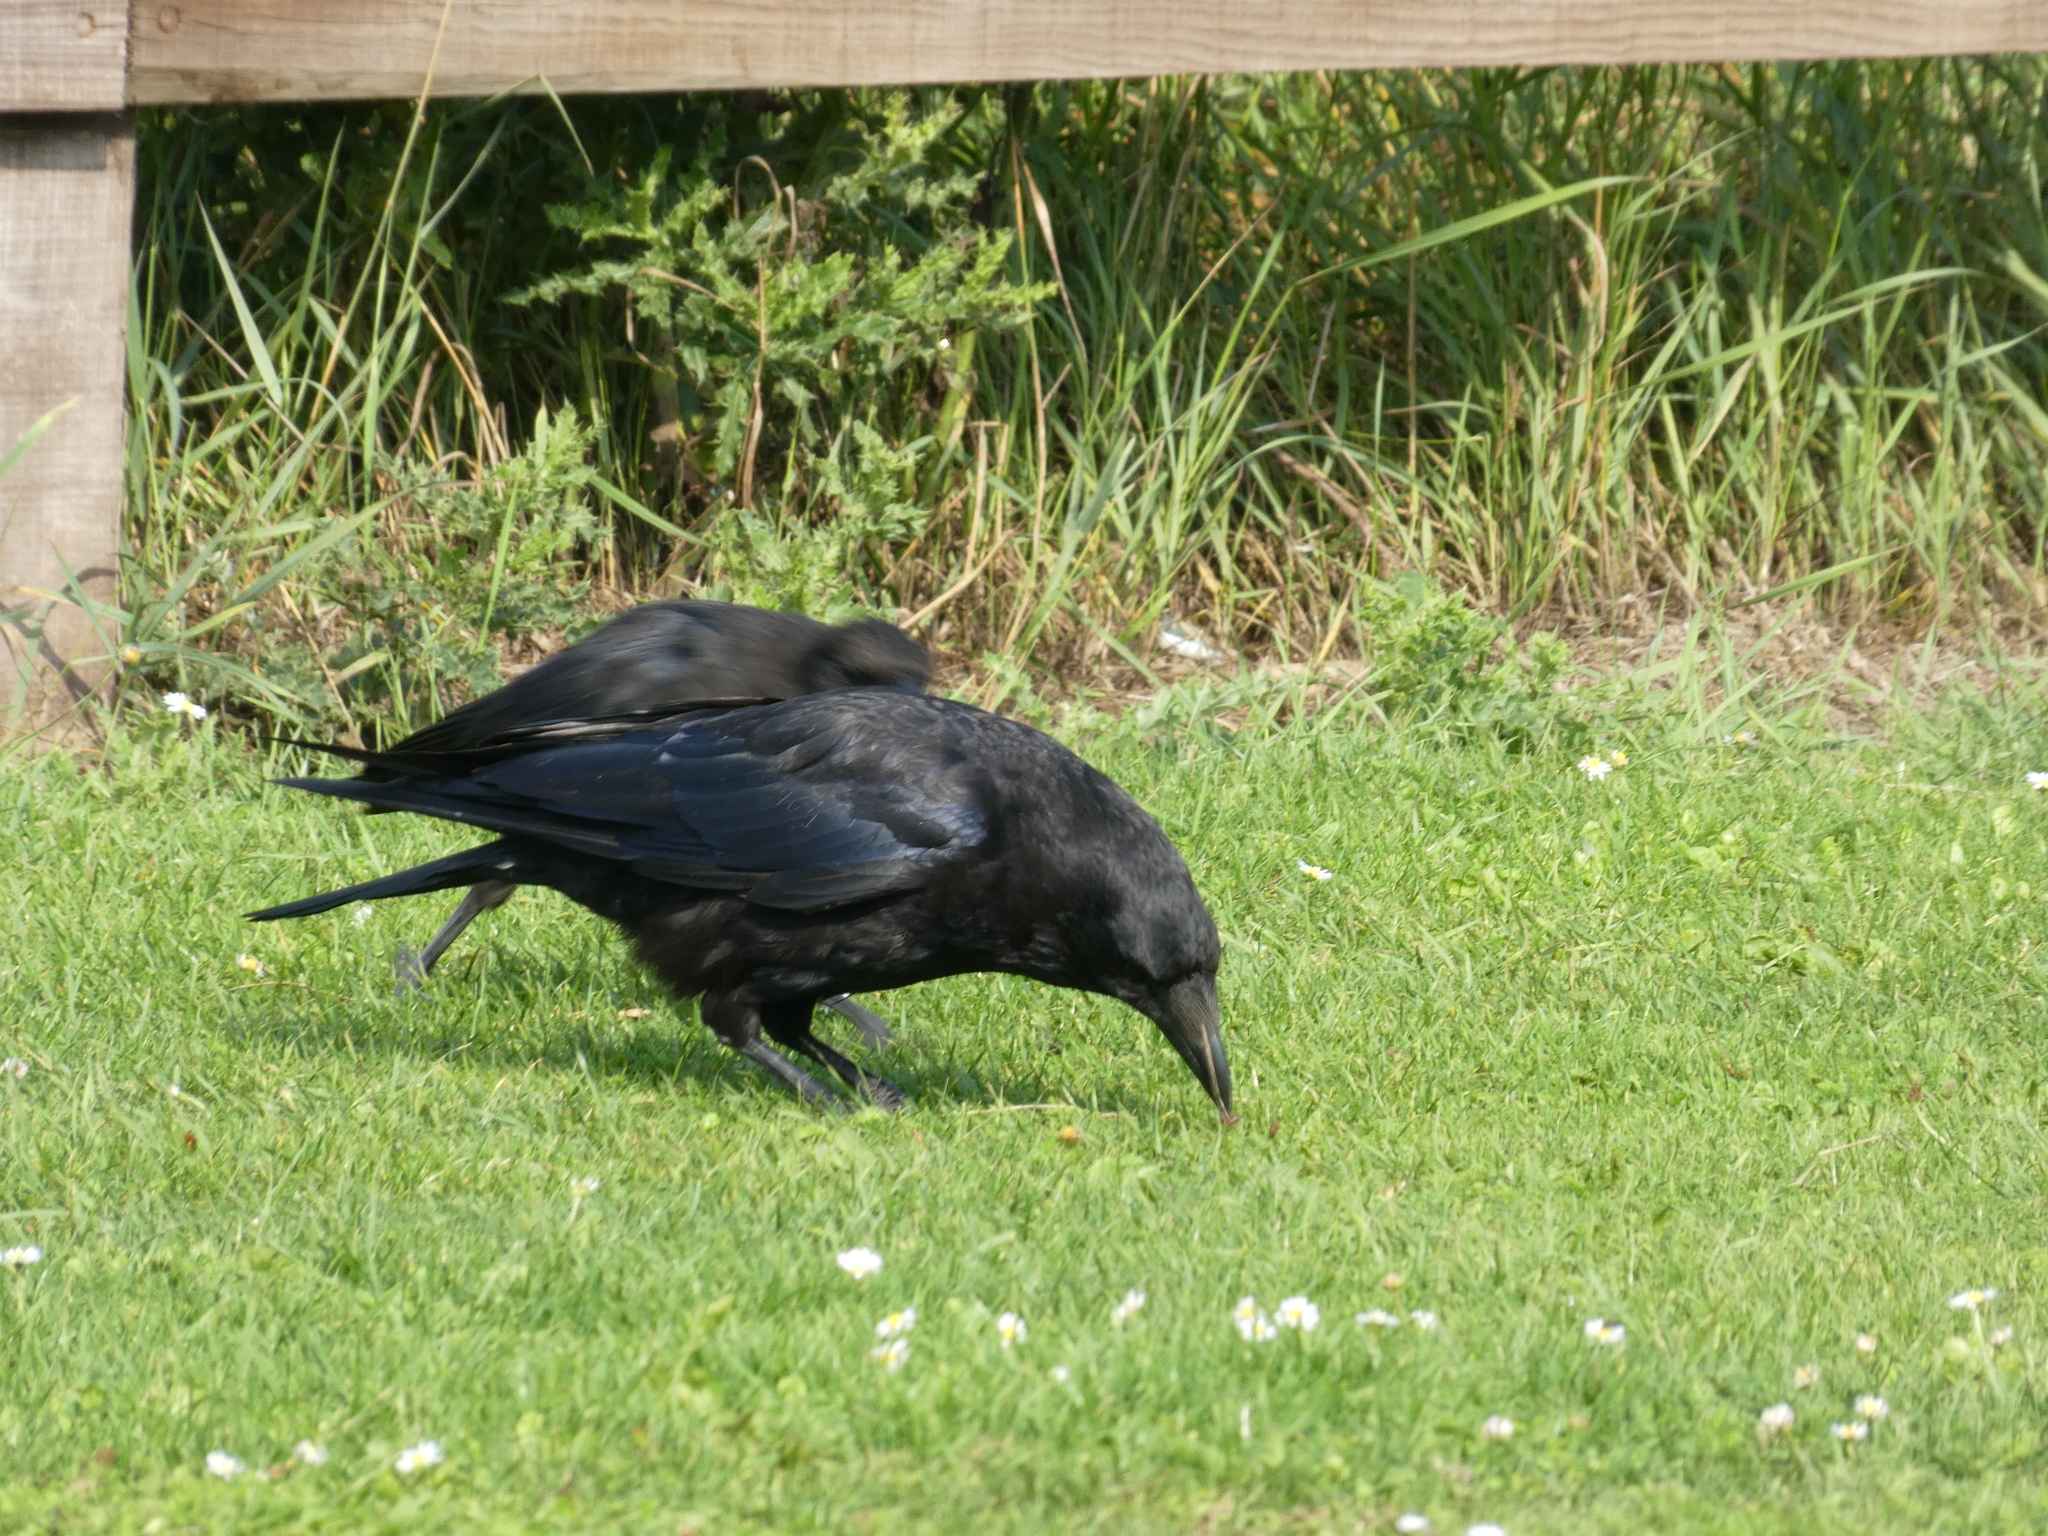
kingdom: Animalia
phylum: Chordata
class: Aves
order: Passeriformes
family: Corvidae
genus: Corvus
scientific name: Corvus corone
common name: Carrion crow
